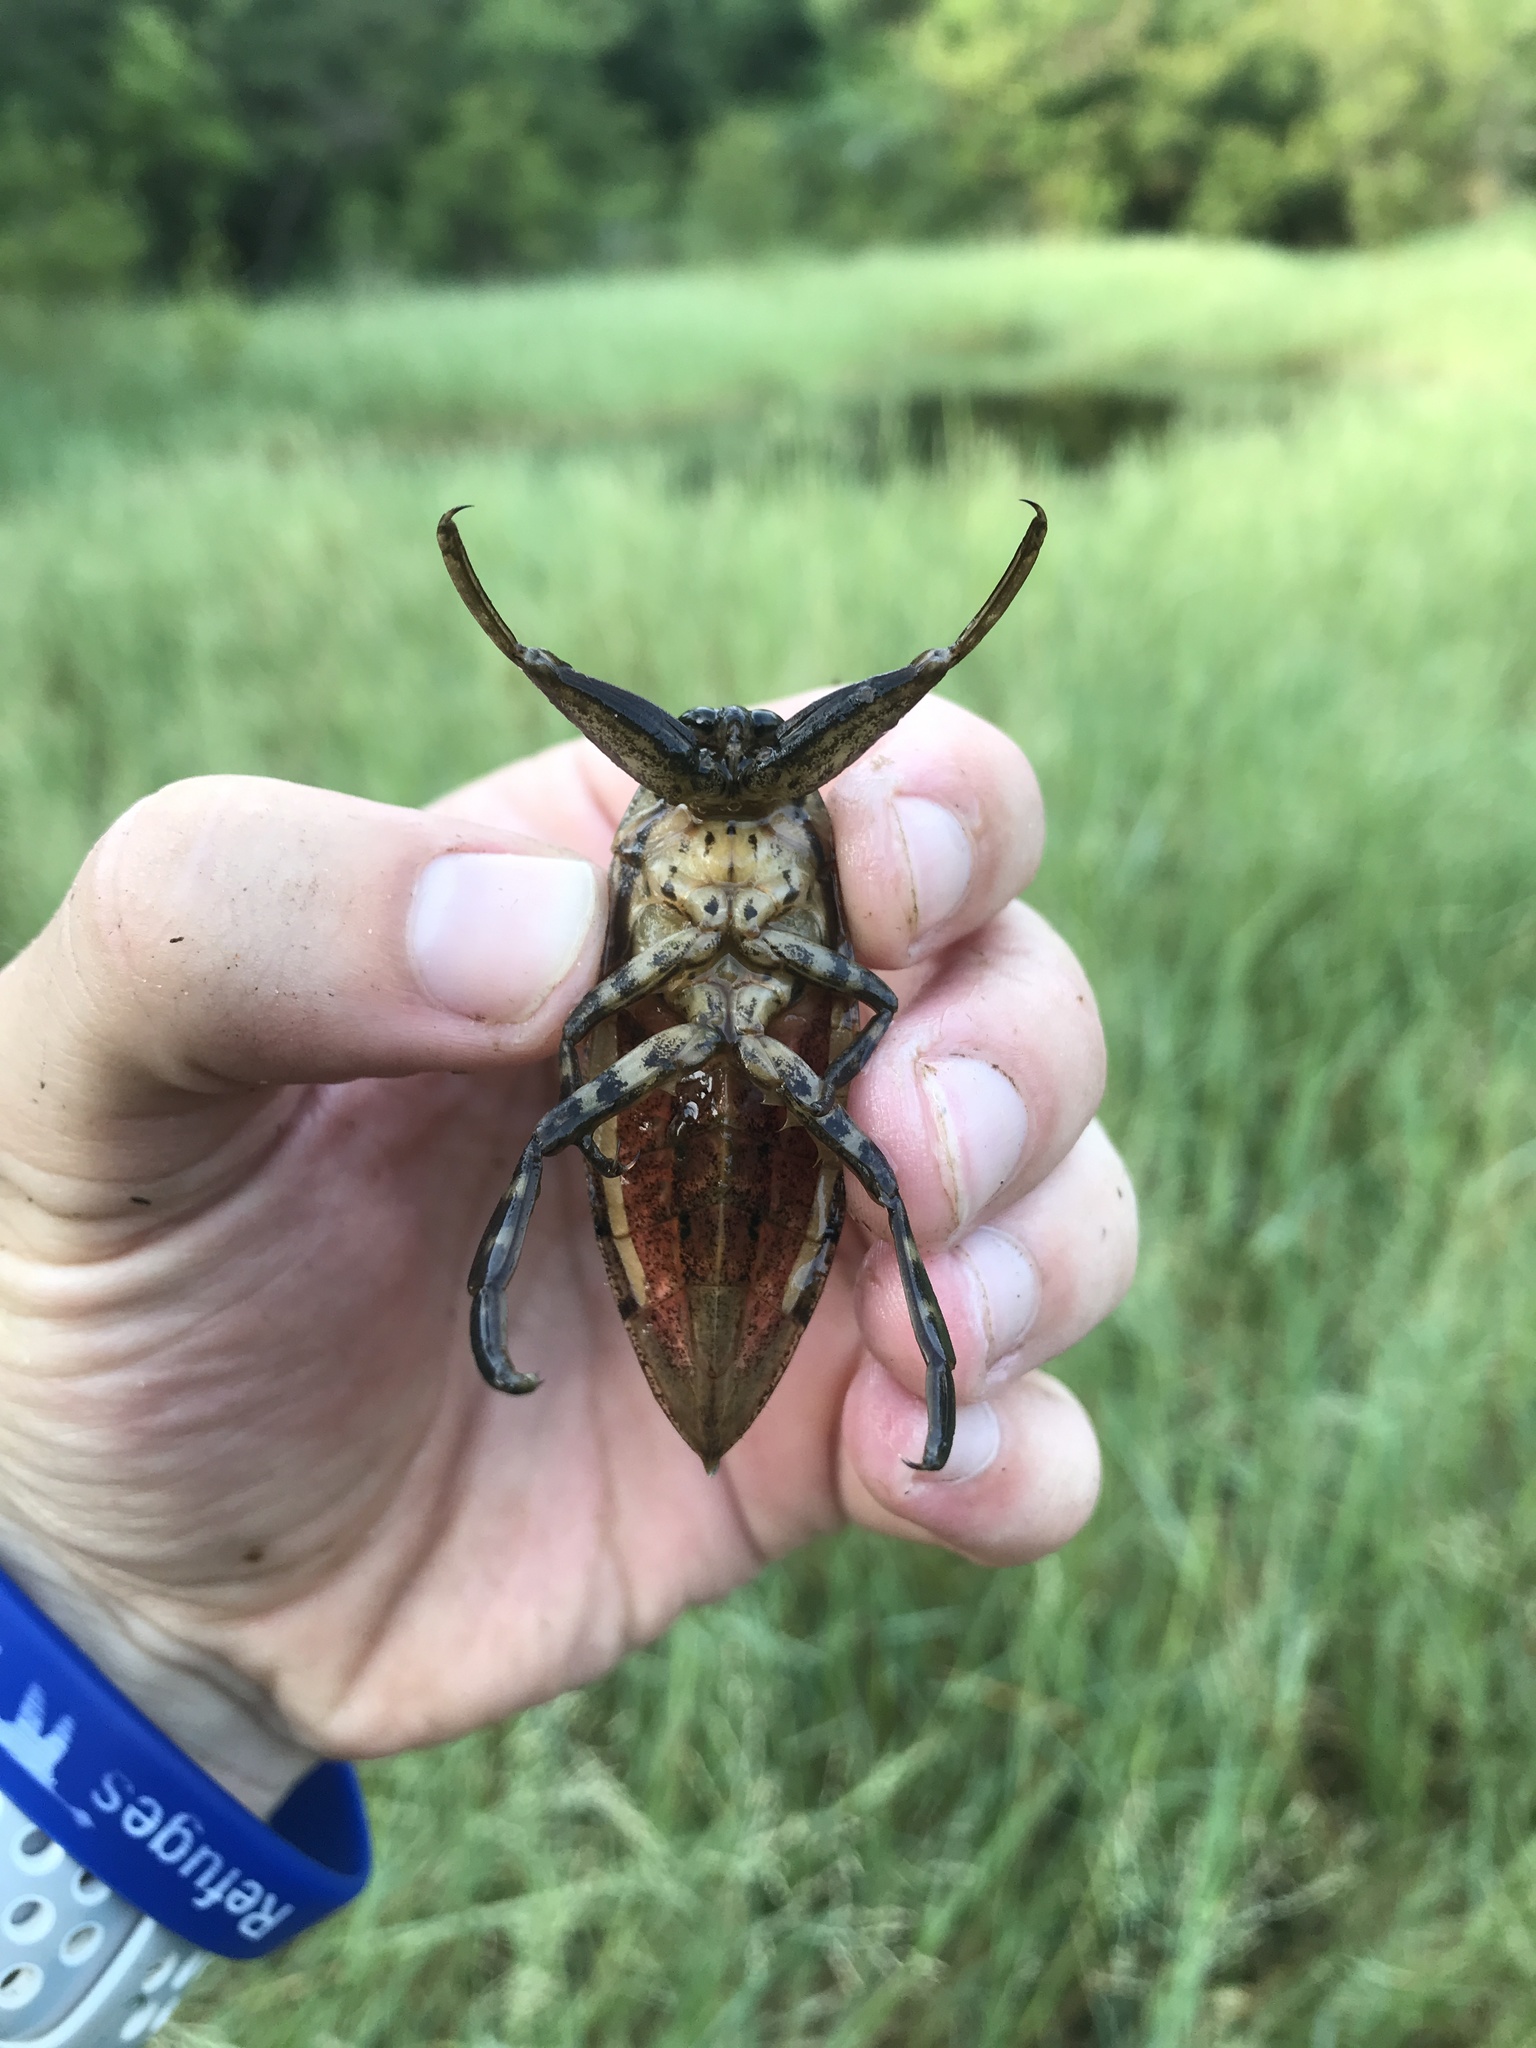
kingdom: Animalia
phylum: Arthropoda
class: Insecta
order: Hemiptera
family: Belostomatidae
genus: Lethocerus
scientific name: Lethocerus uhleri
